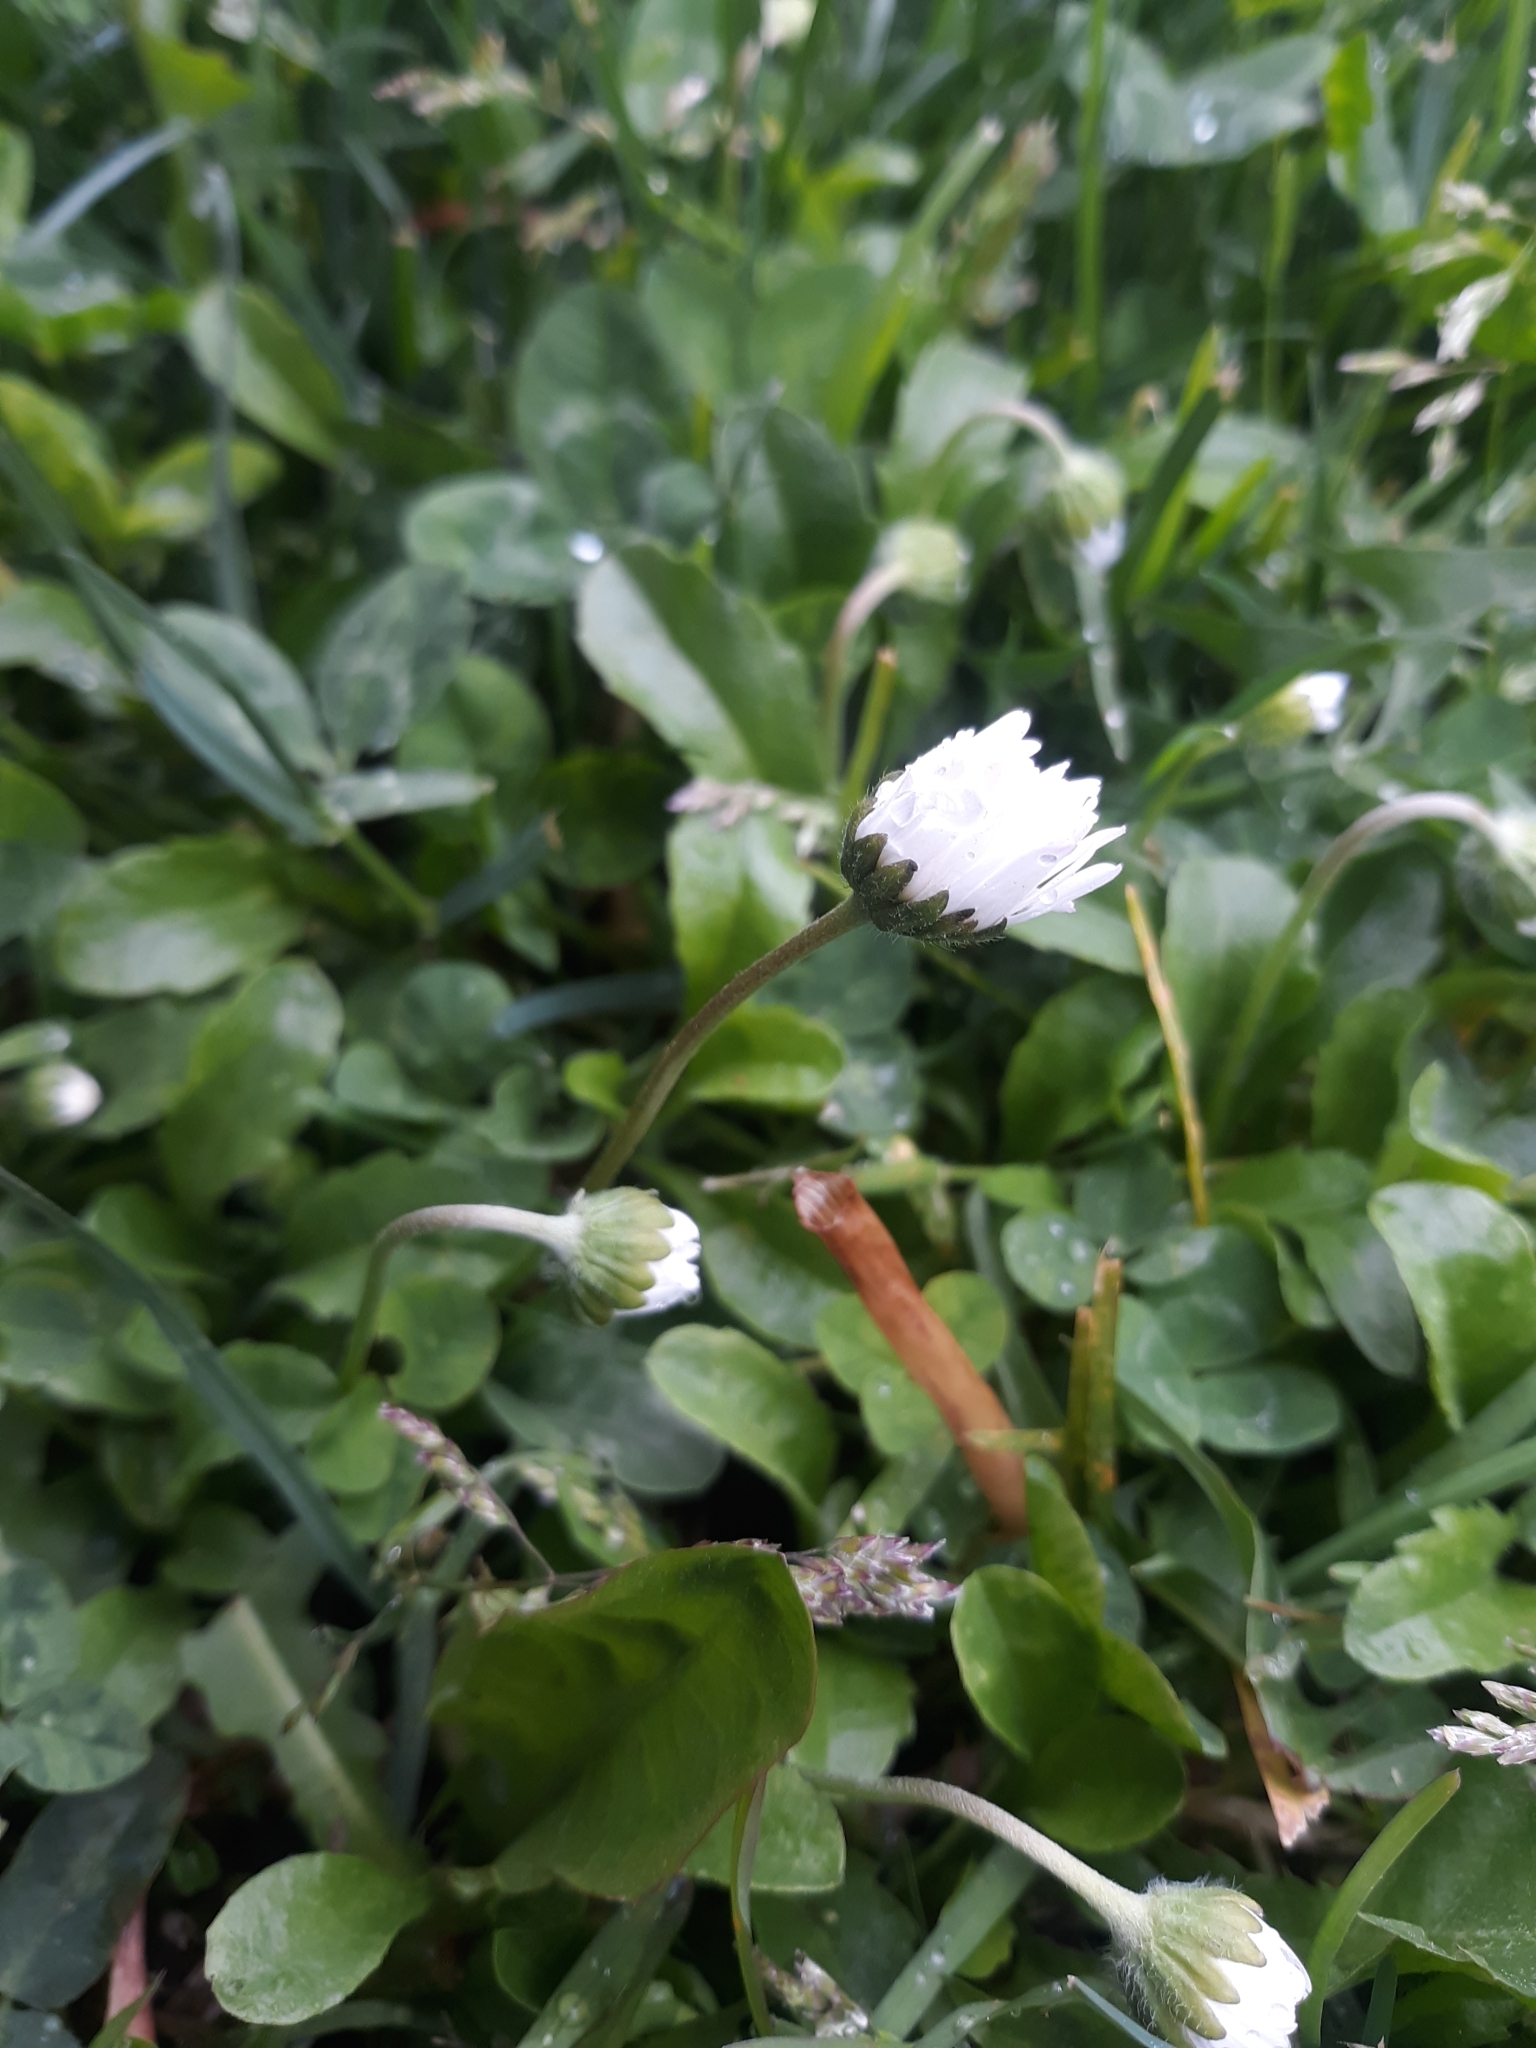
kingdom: Plantae
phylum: Tracheophyta
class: Magnoliopsida
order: Asterales
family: Asteraceae
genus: Bellis
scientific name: Bellis perennis
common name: Lawndaisy
